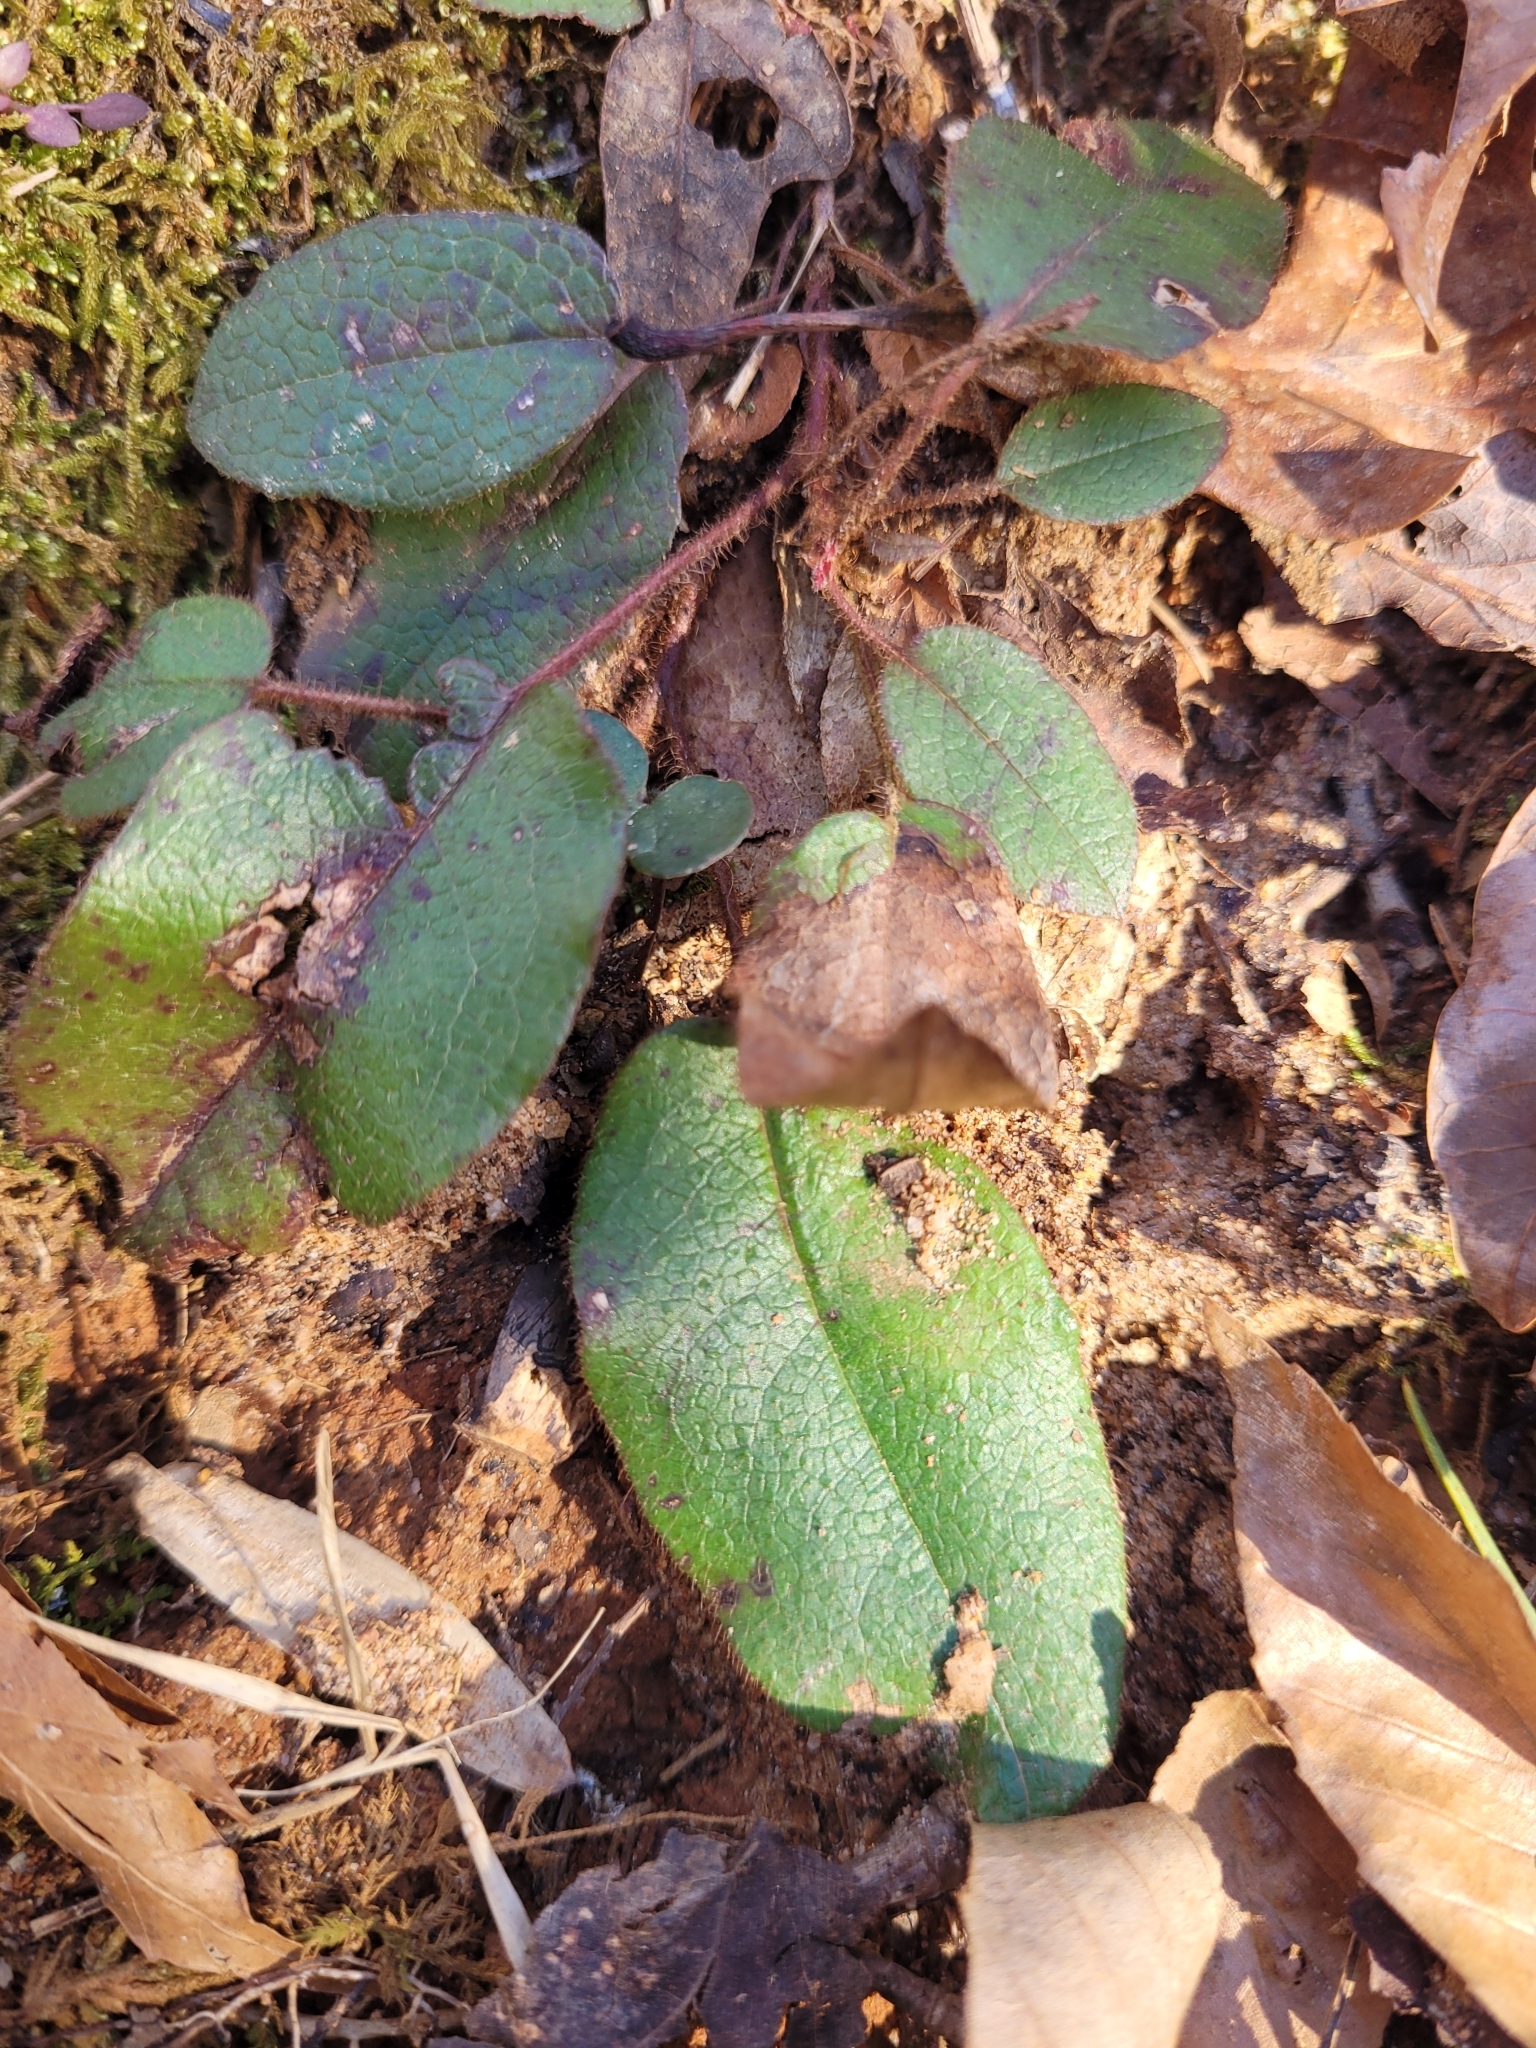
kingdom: Plantae
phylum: Tracheophyta
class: Magnoliopsida
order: Ericales
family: Ericaceae
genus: Epigaea
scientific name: Epigaea repens
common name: Gravelroot
